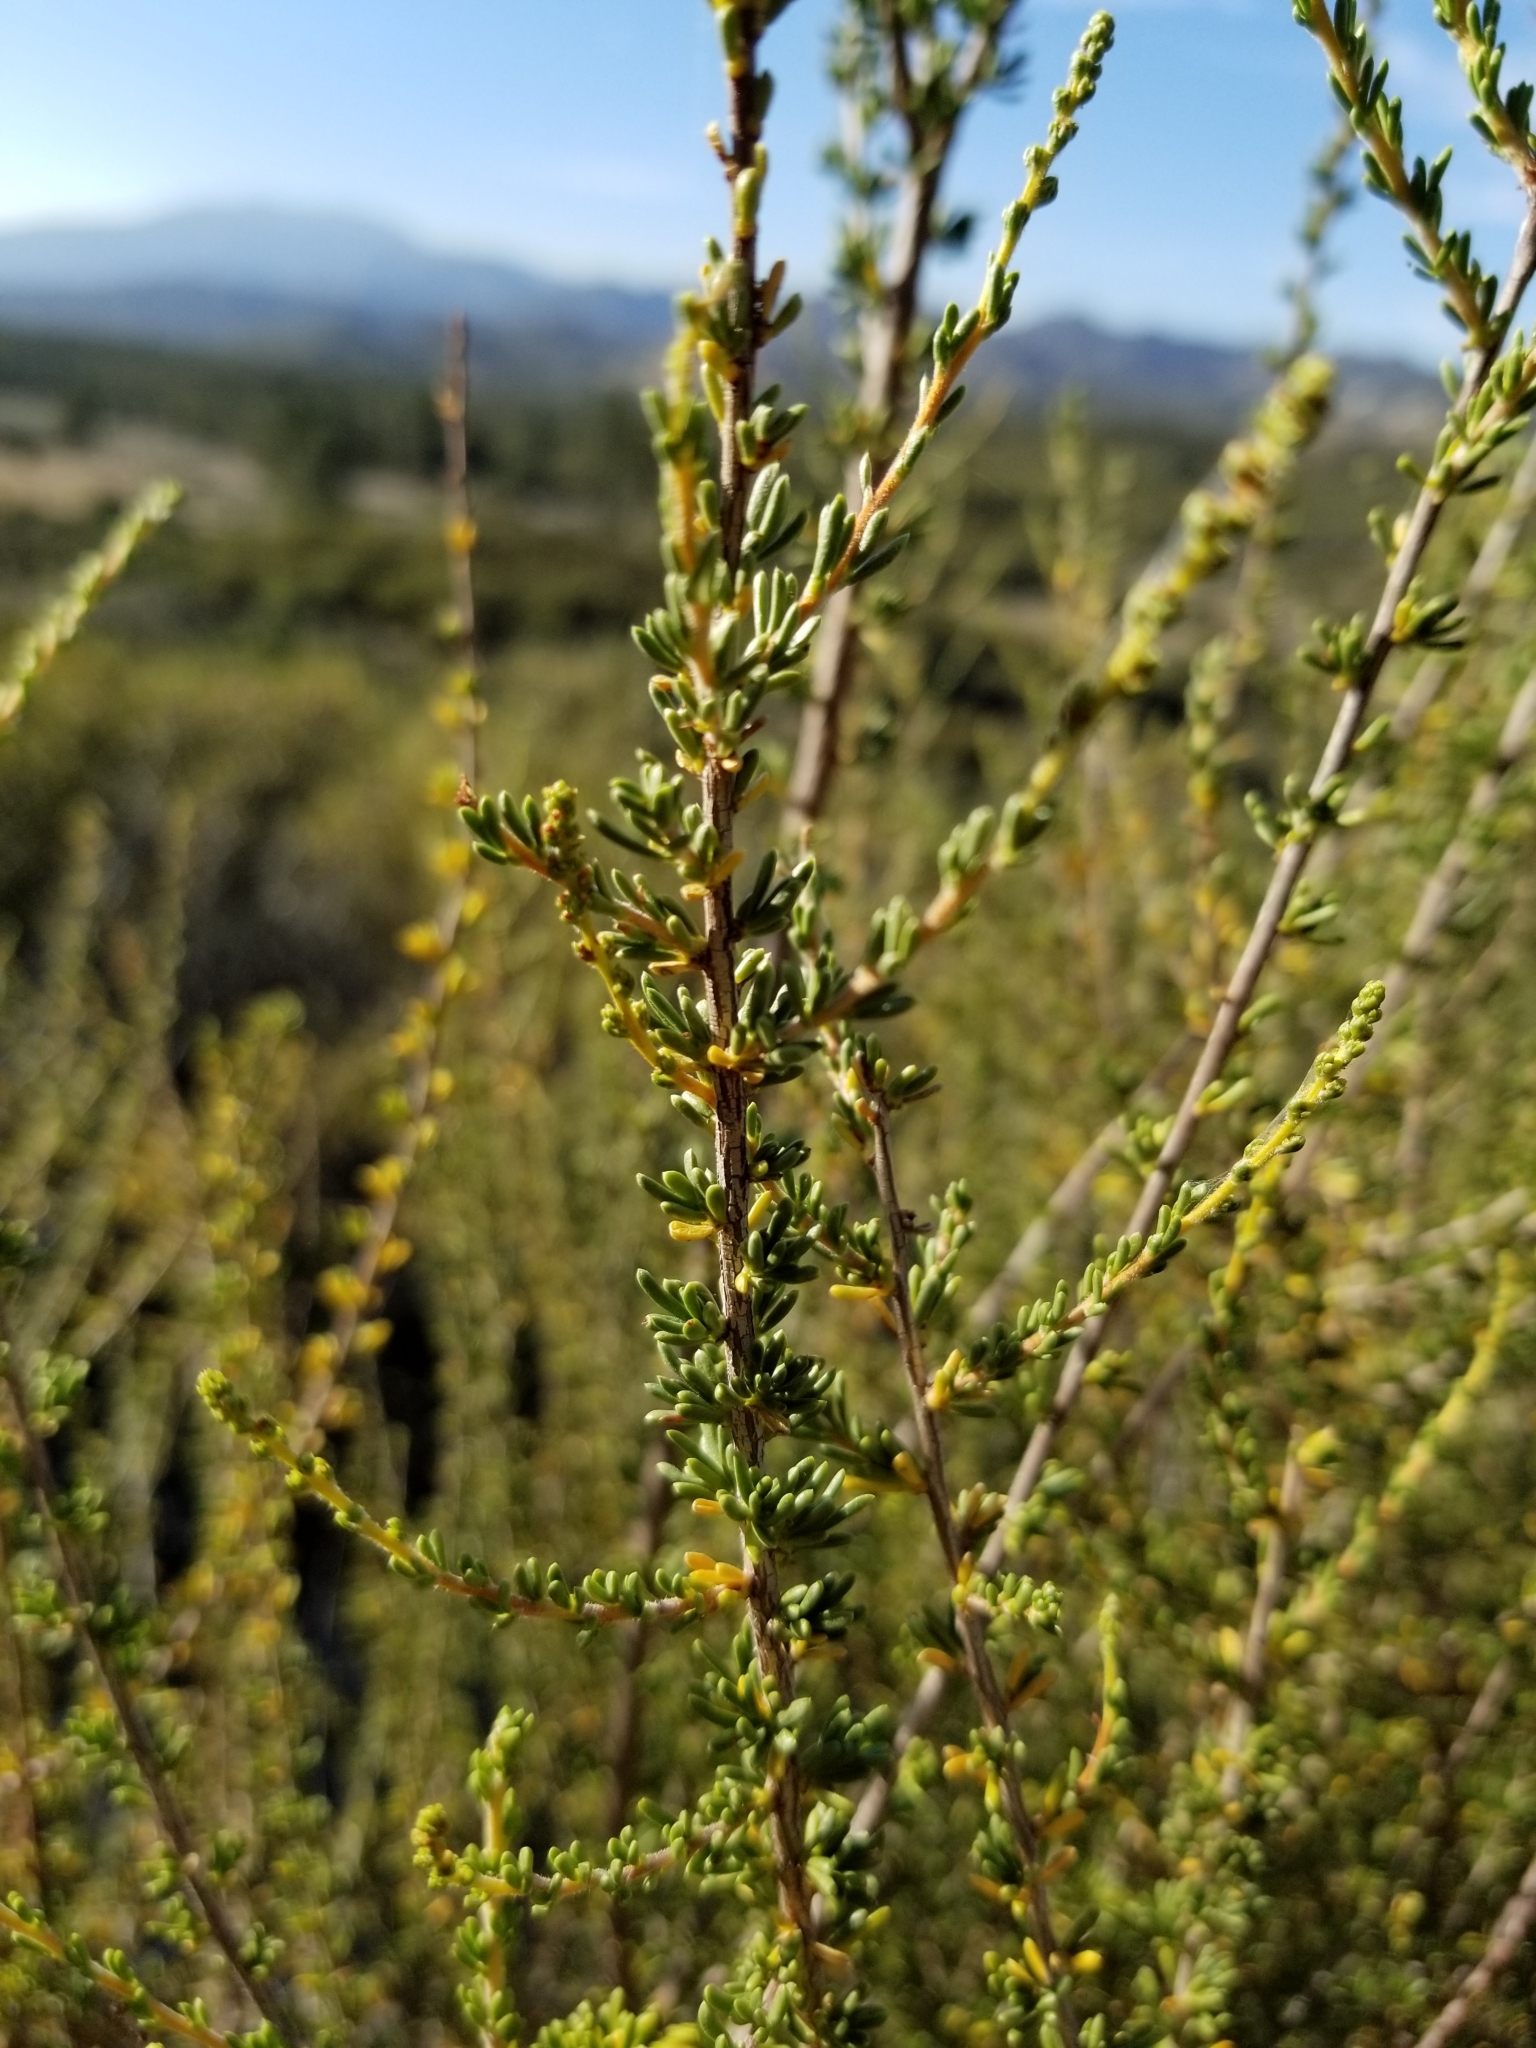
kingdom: Plantae
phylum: Tracheophyta
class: Magnoliopsida
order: Rosales
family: Rosaceae
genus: Adenostoma
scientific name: Adenostoma fasciculatum
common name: Chamise
